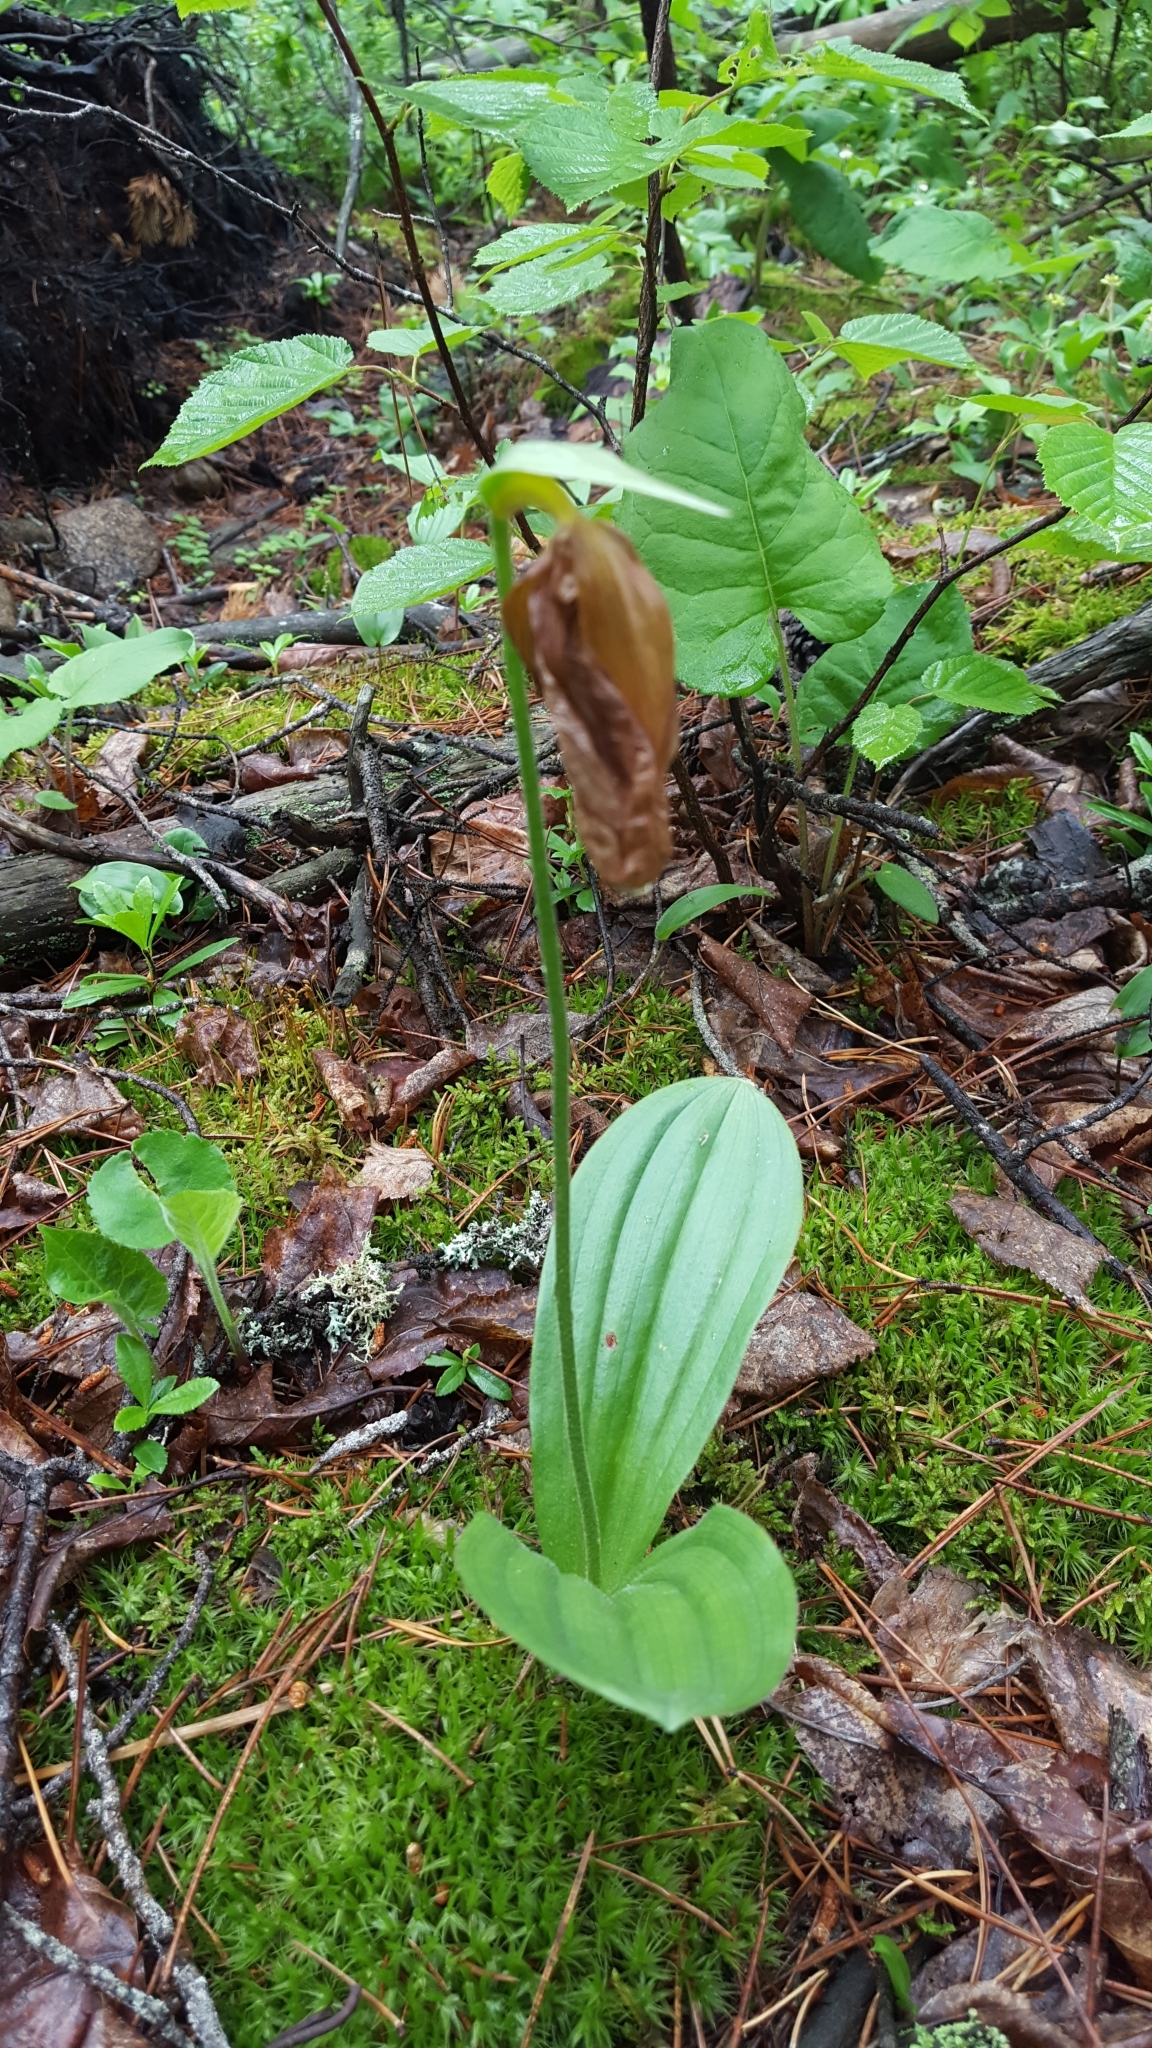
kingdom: Plantae
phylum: Tracheophyta
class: Liliopsida
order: Asparagales
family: Orchidaceae
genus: Cypripedium
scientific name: Cypripedium acaule
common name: Pink lady's-slipper
